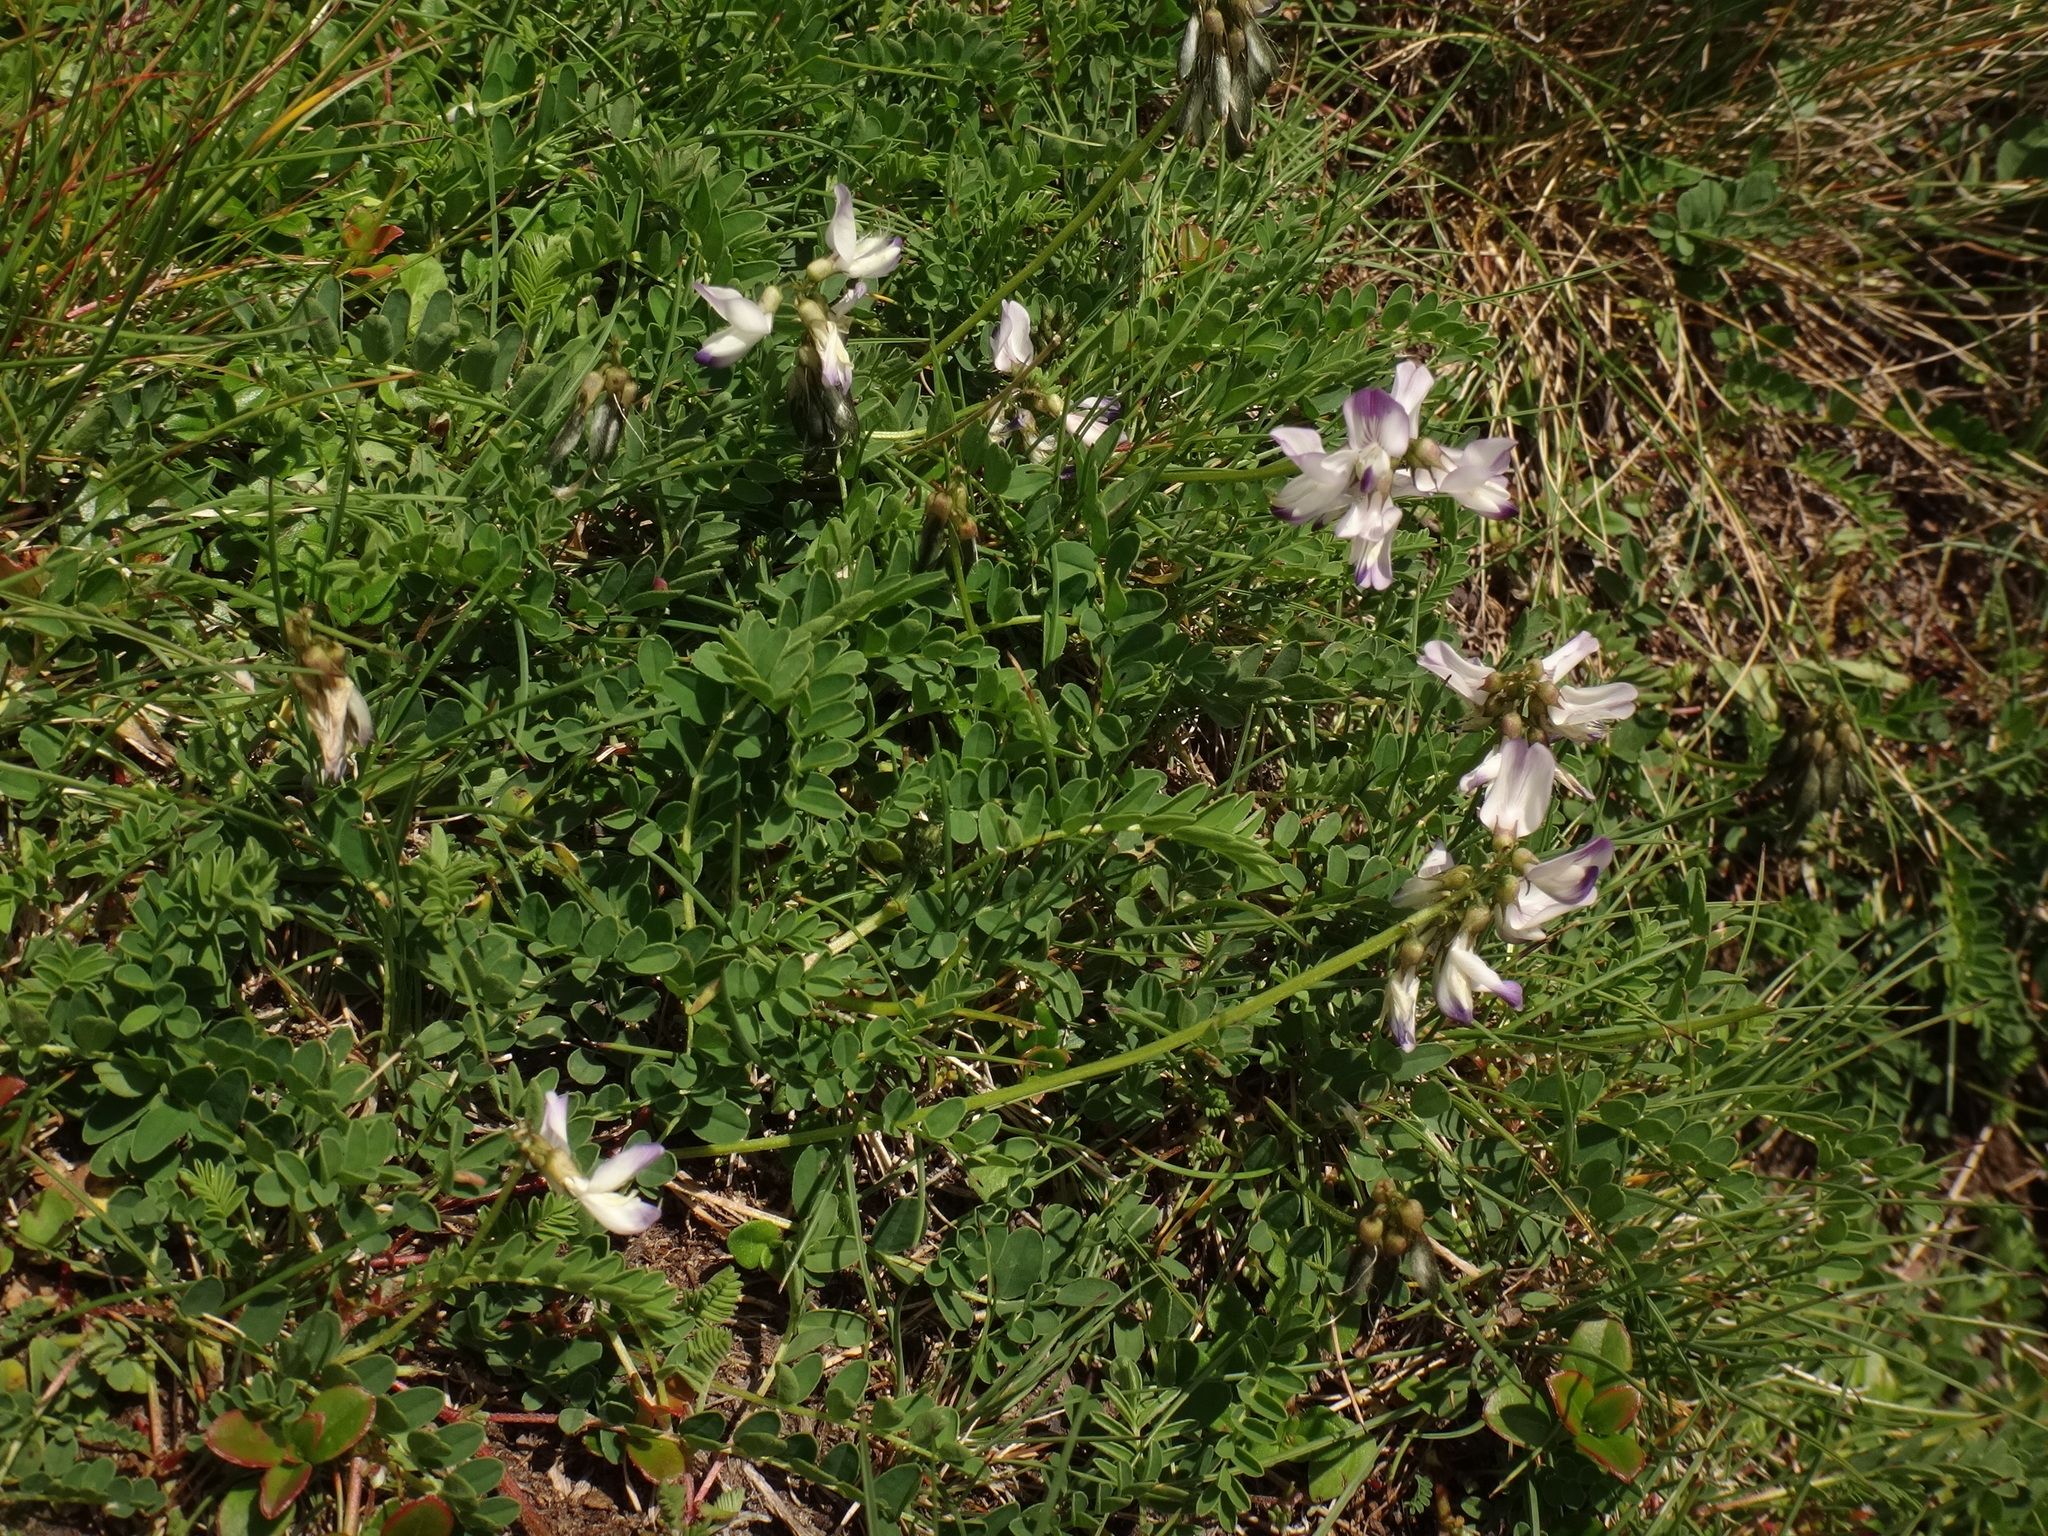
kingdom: Plantae
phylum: Tracheophyta
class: Magnoliopsida
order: Fabales
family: Fabaceae
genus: Astragalus
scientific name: Astragalus alpinus
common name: Alpine milk-vetch
